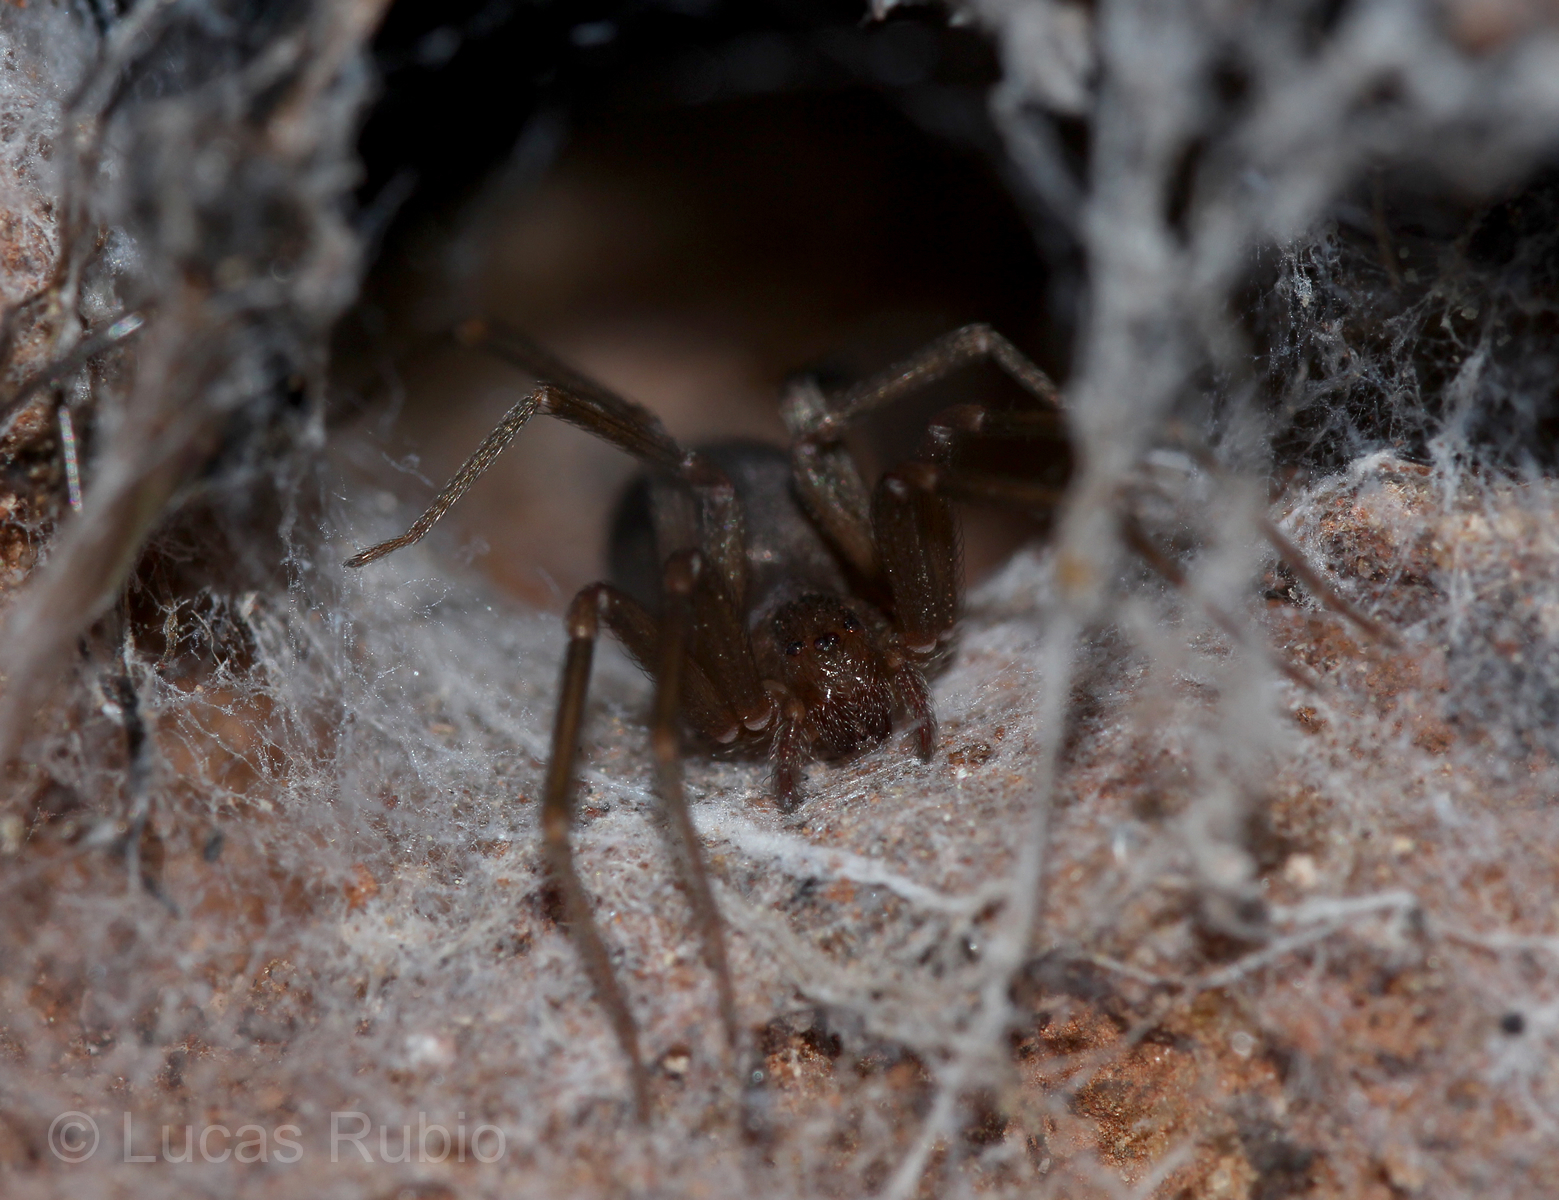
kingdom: Animalia
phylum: Arthropoda
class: Arachnida
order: Araneae
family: Sicariidae
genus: Loxosceles
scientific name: Loxosceles
